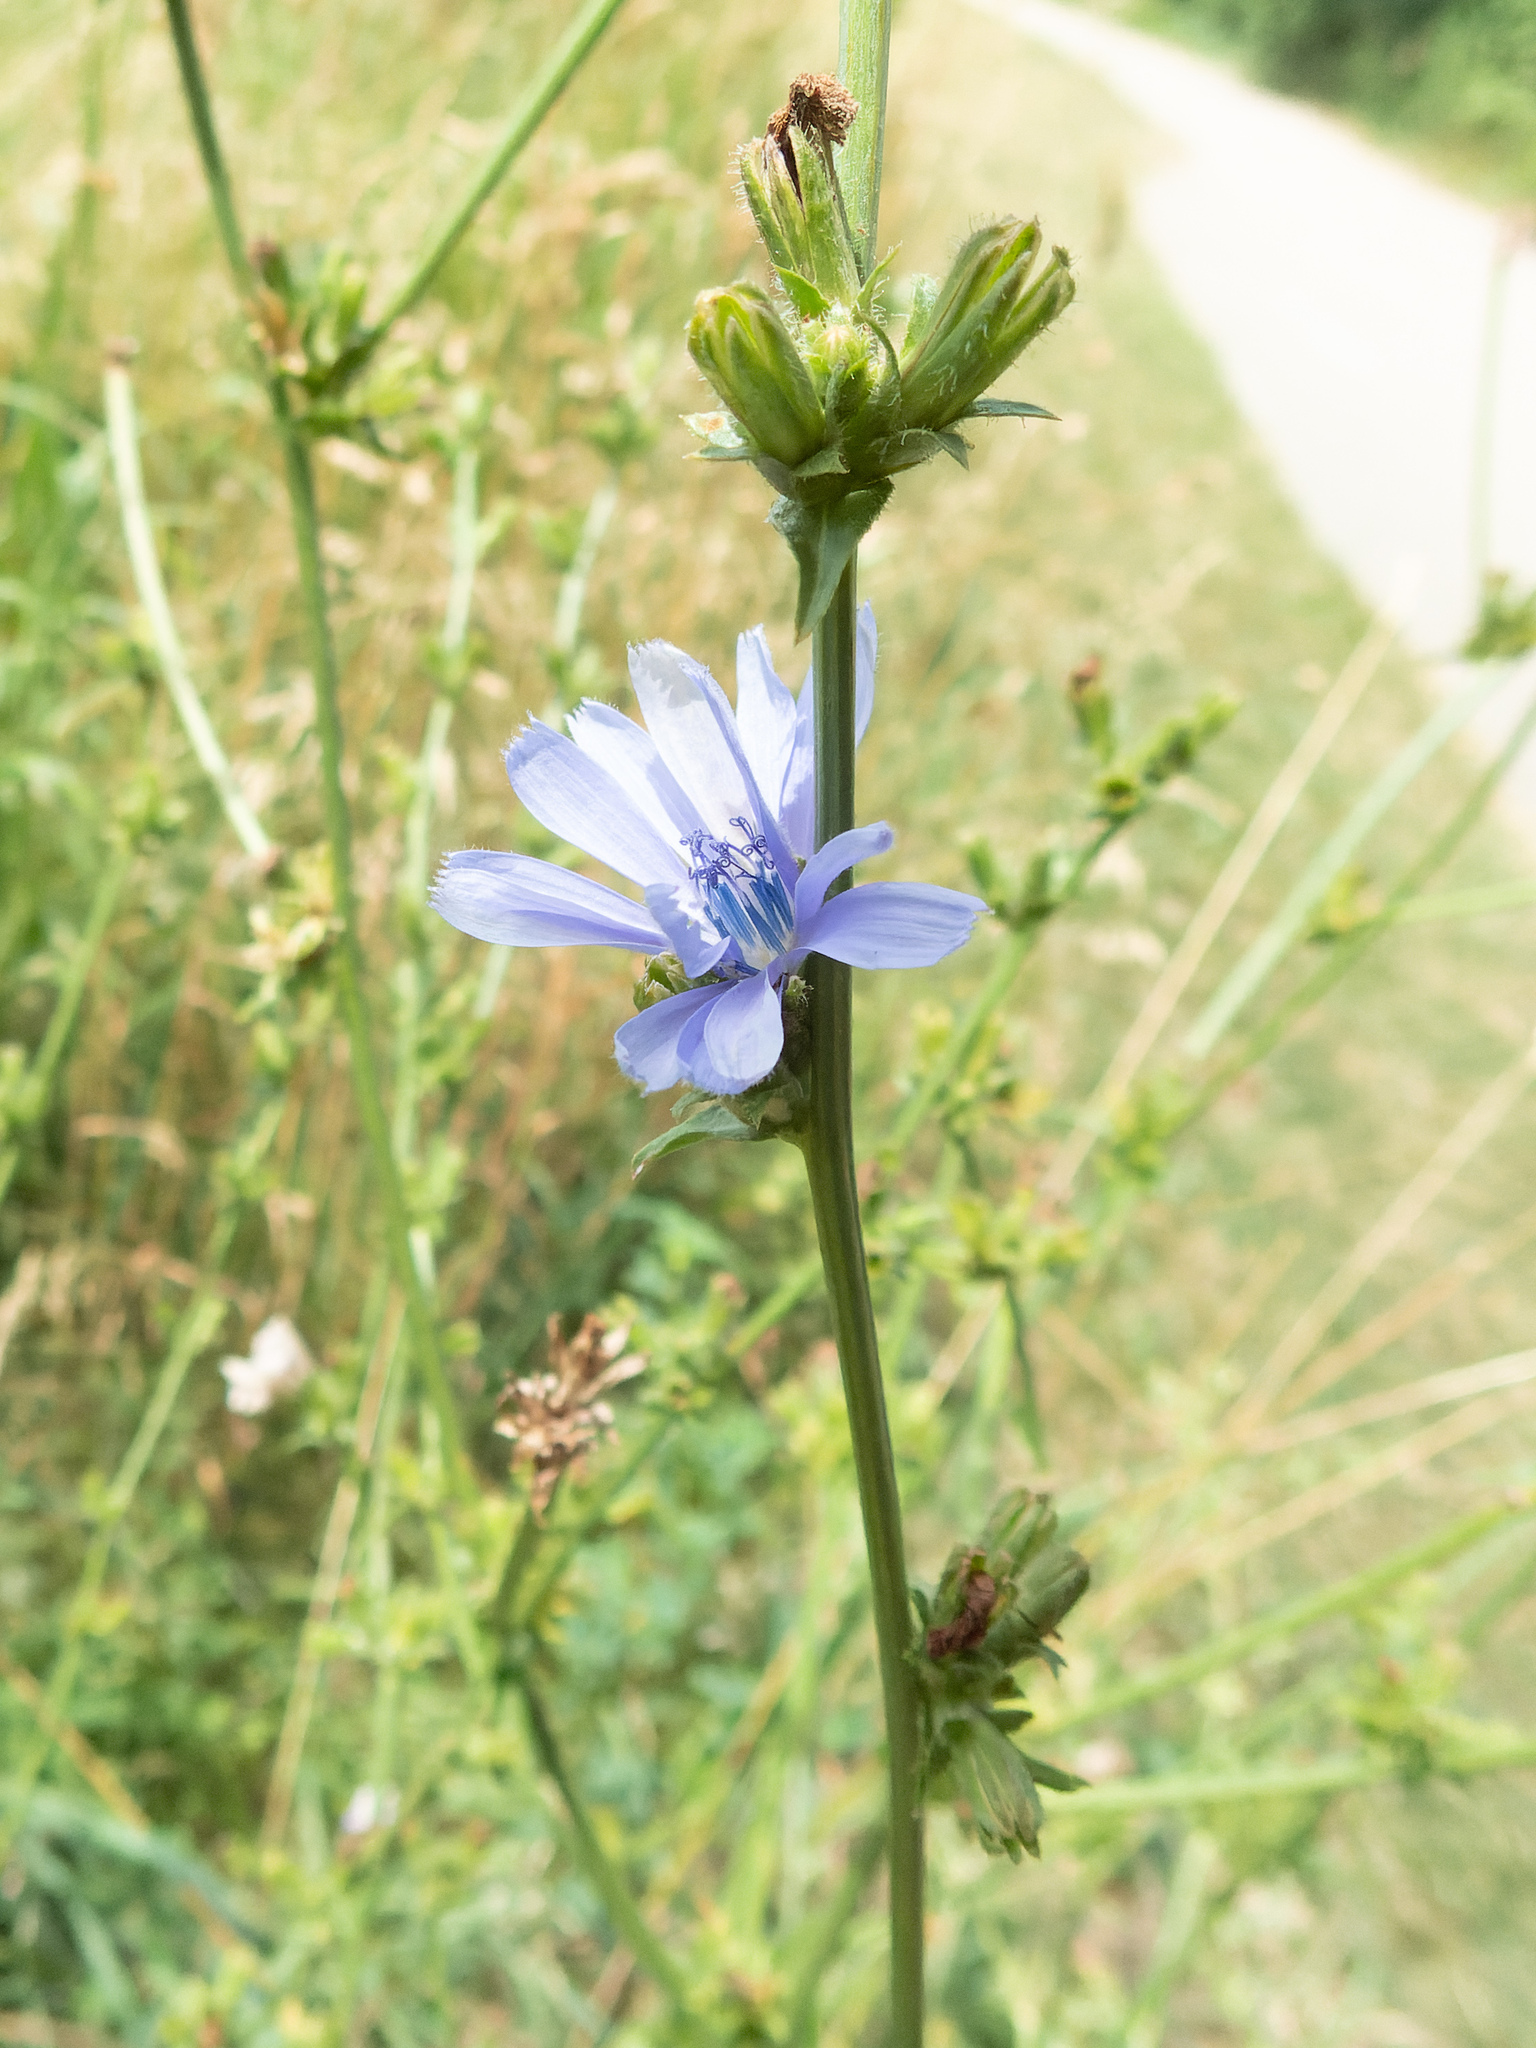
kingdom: Plantae
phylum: Tracheophyta
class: Magnoliopsida
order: Asterales
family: Asteraceae
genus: Cichorium
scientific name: Cichorium intybus
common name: Chicory
